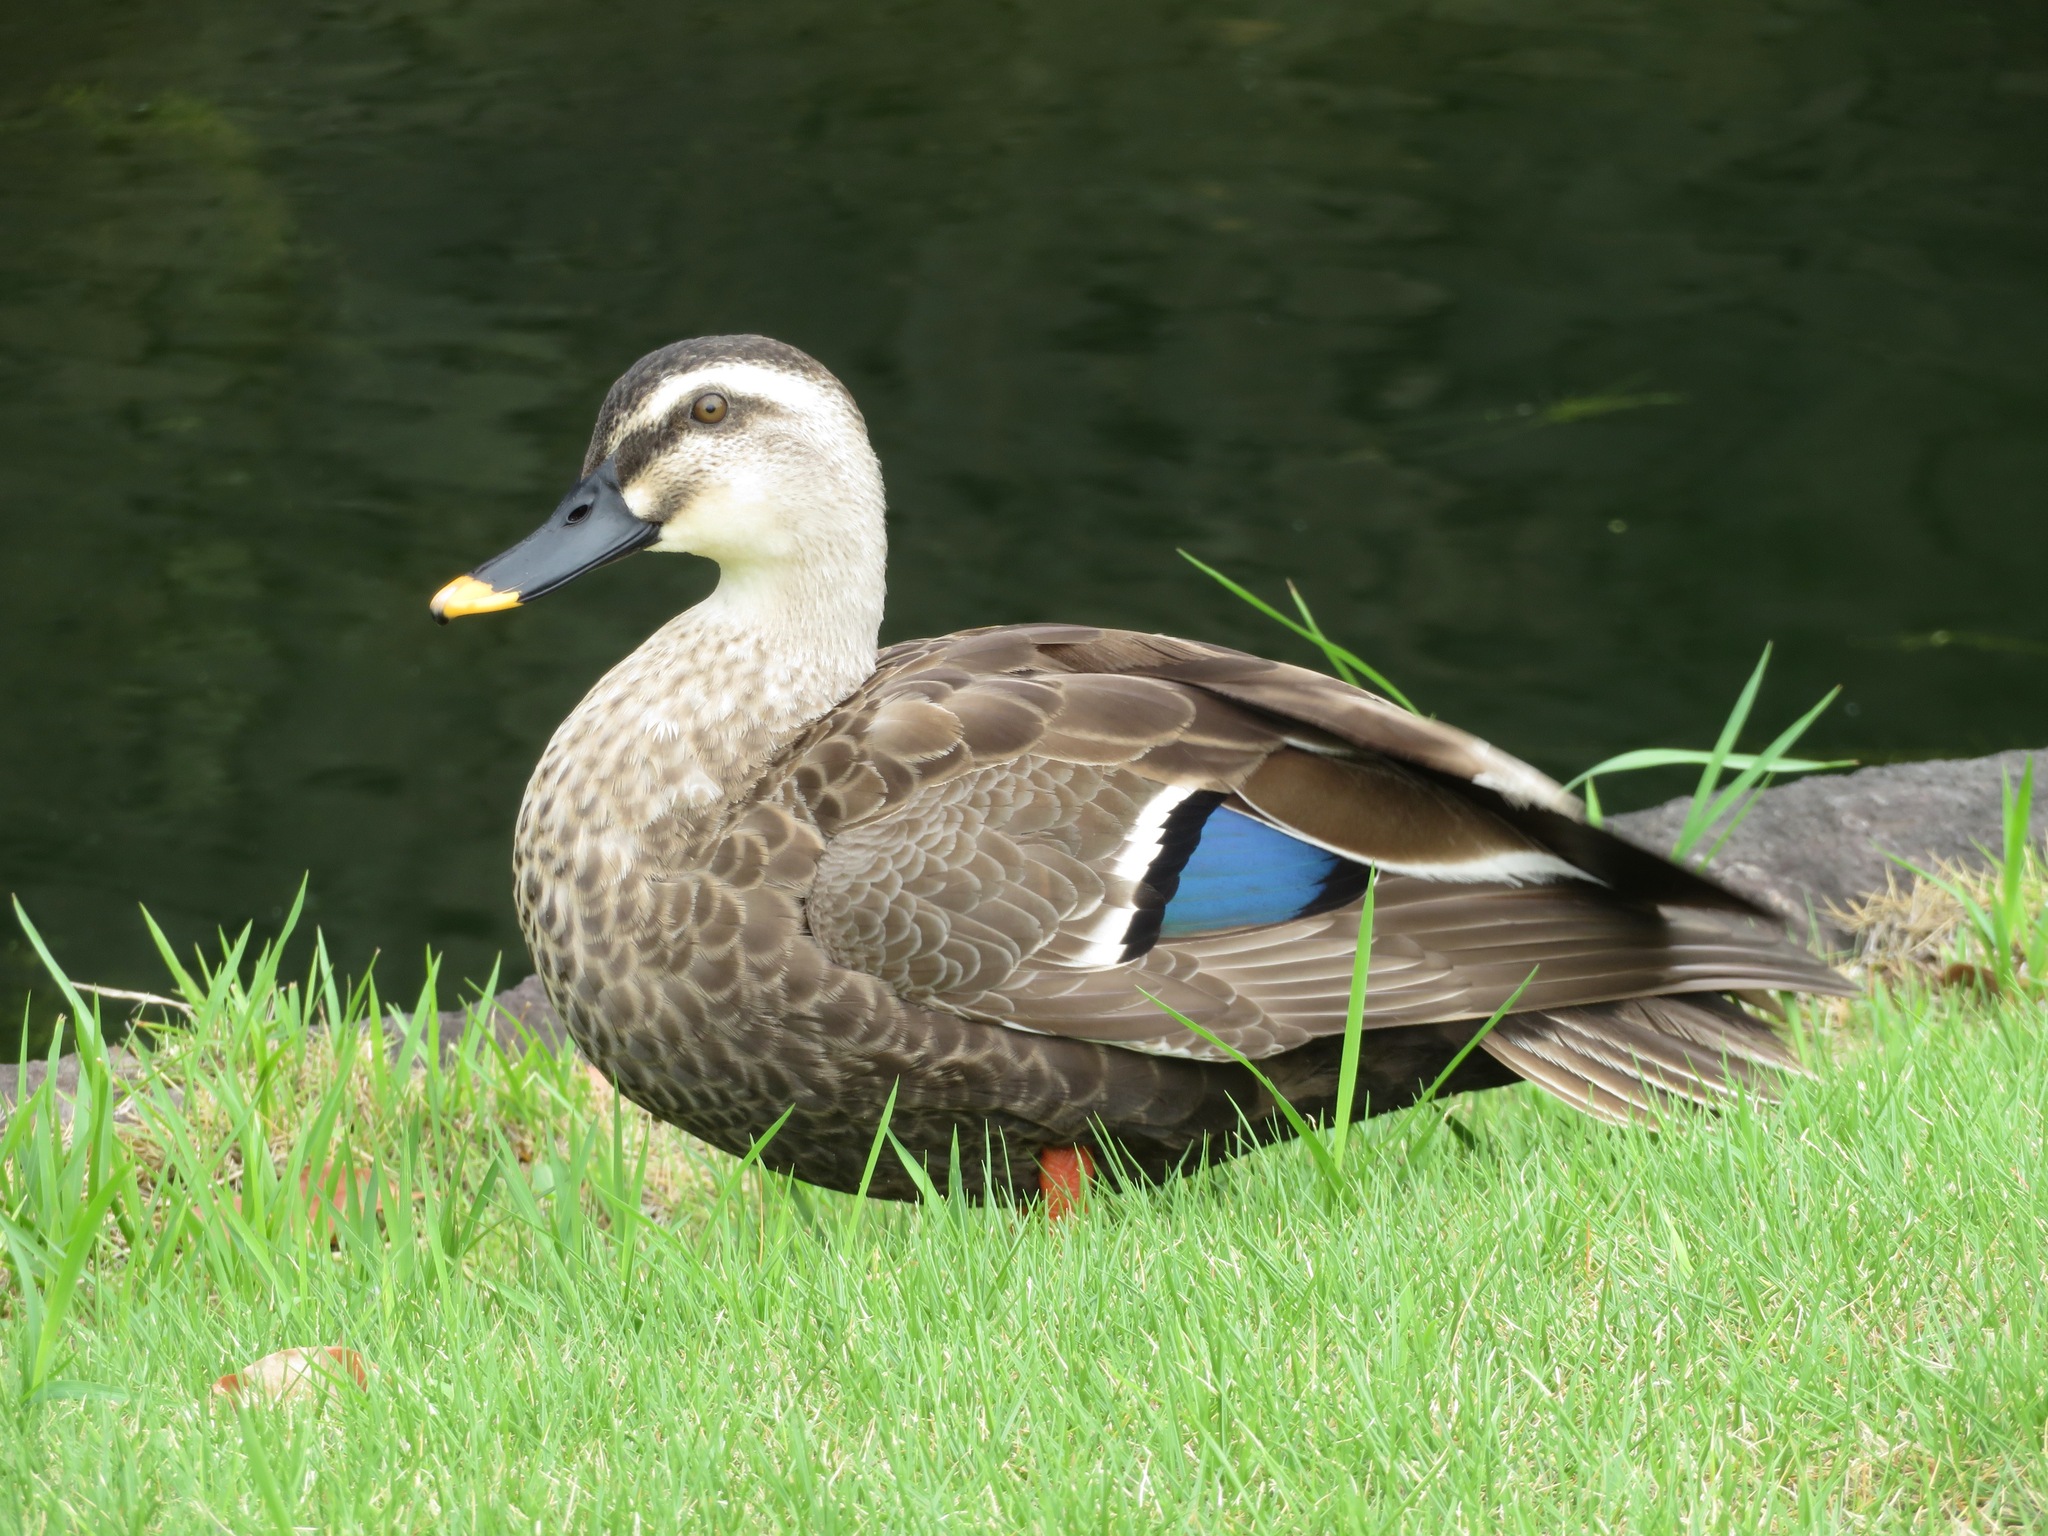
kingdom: Animalia
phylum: Chordata
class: Aves
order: Anseriformes
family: Anatidae
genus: Anas
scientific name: Anas zonorhyncha
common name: Eastern spot-billed duck
